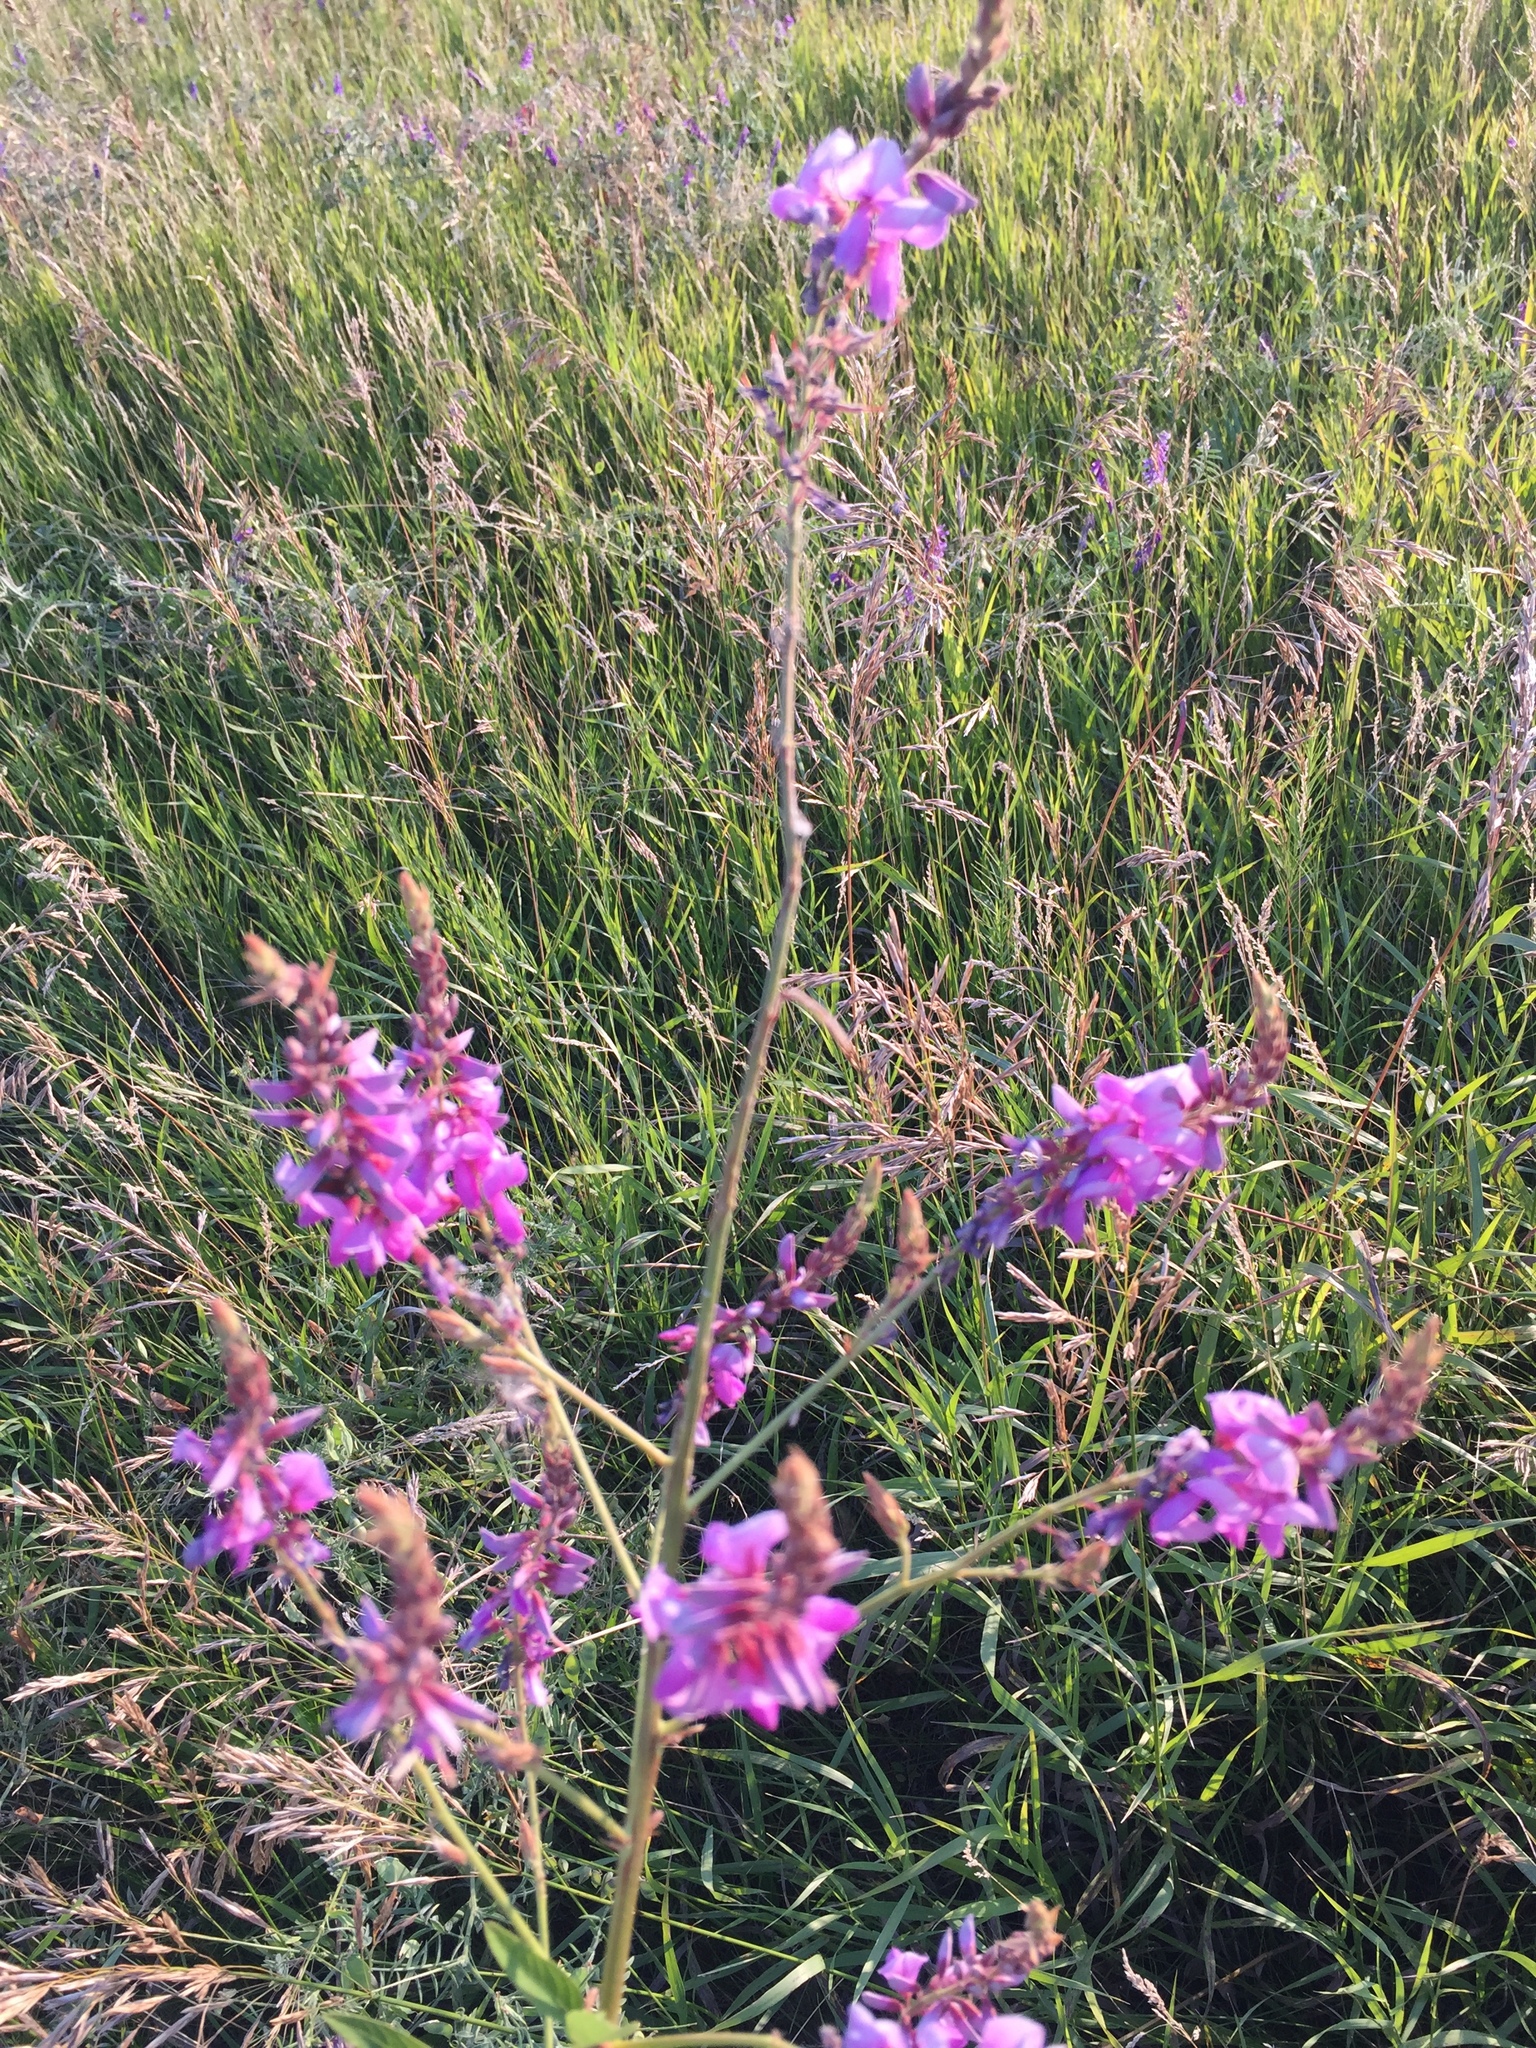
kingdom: Plantae
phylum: Tracheophyta
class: Magnoliopsida
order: Fabales
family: Fabaceae
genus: Desmodium
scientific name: Desmodium canadense
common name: Canada tick-trefoil
